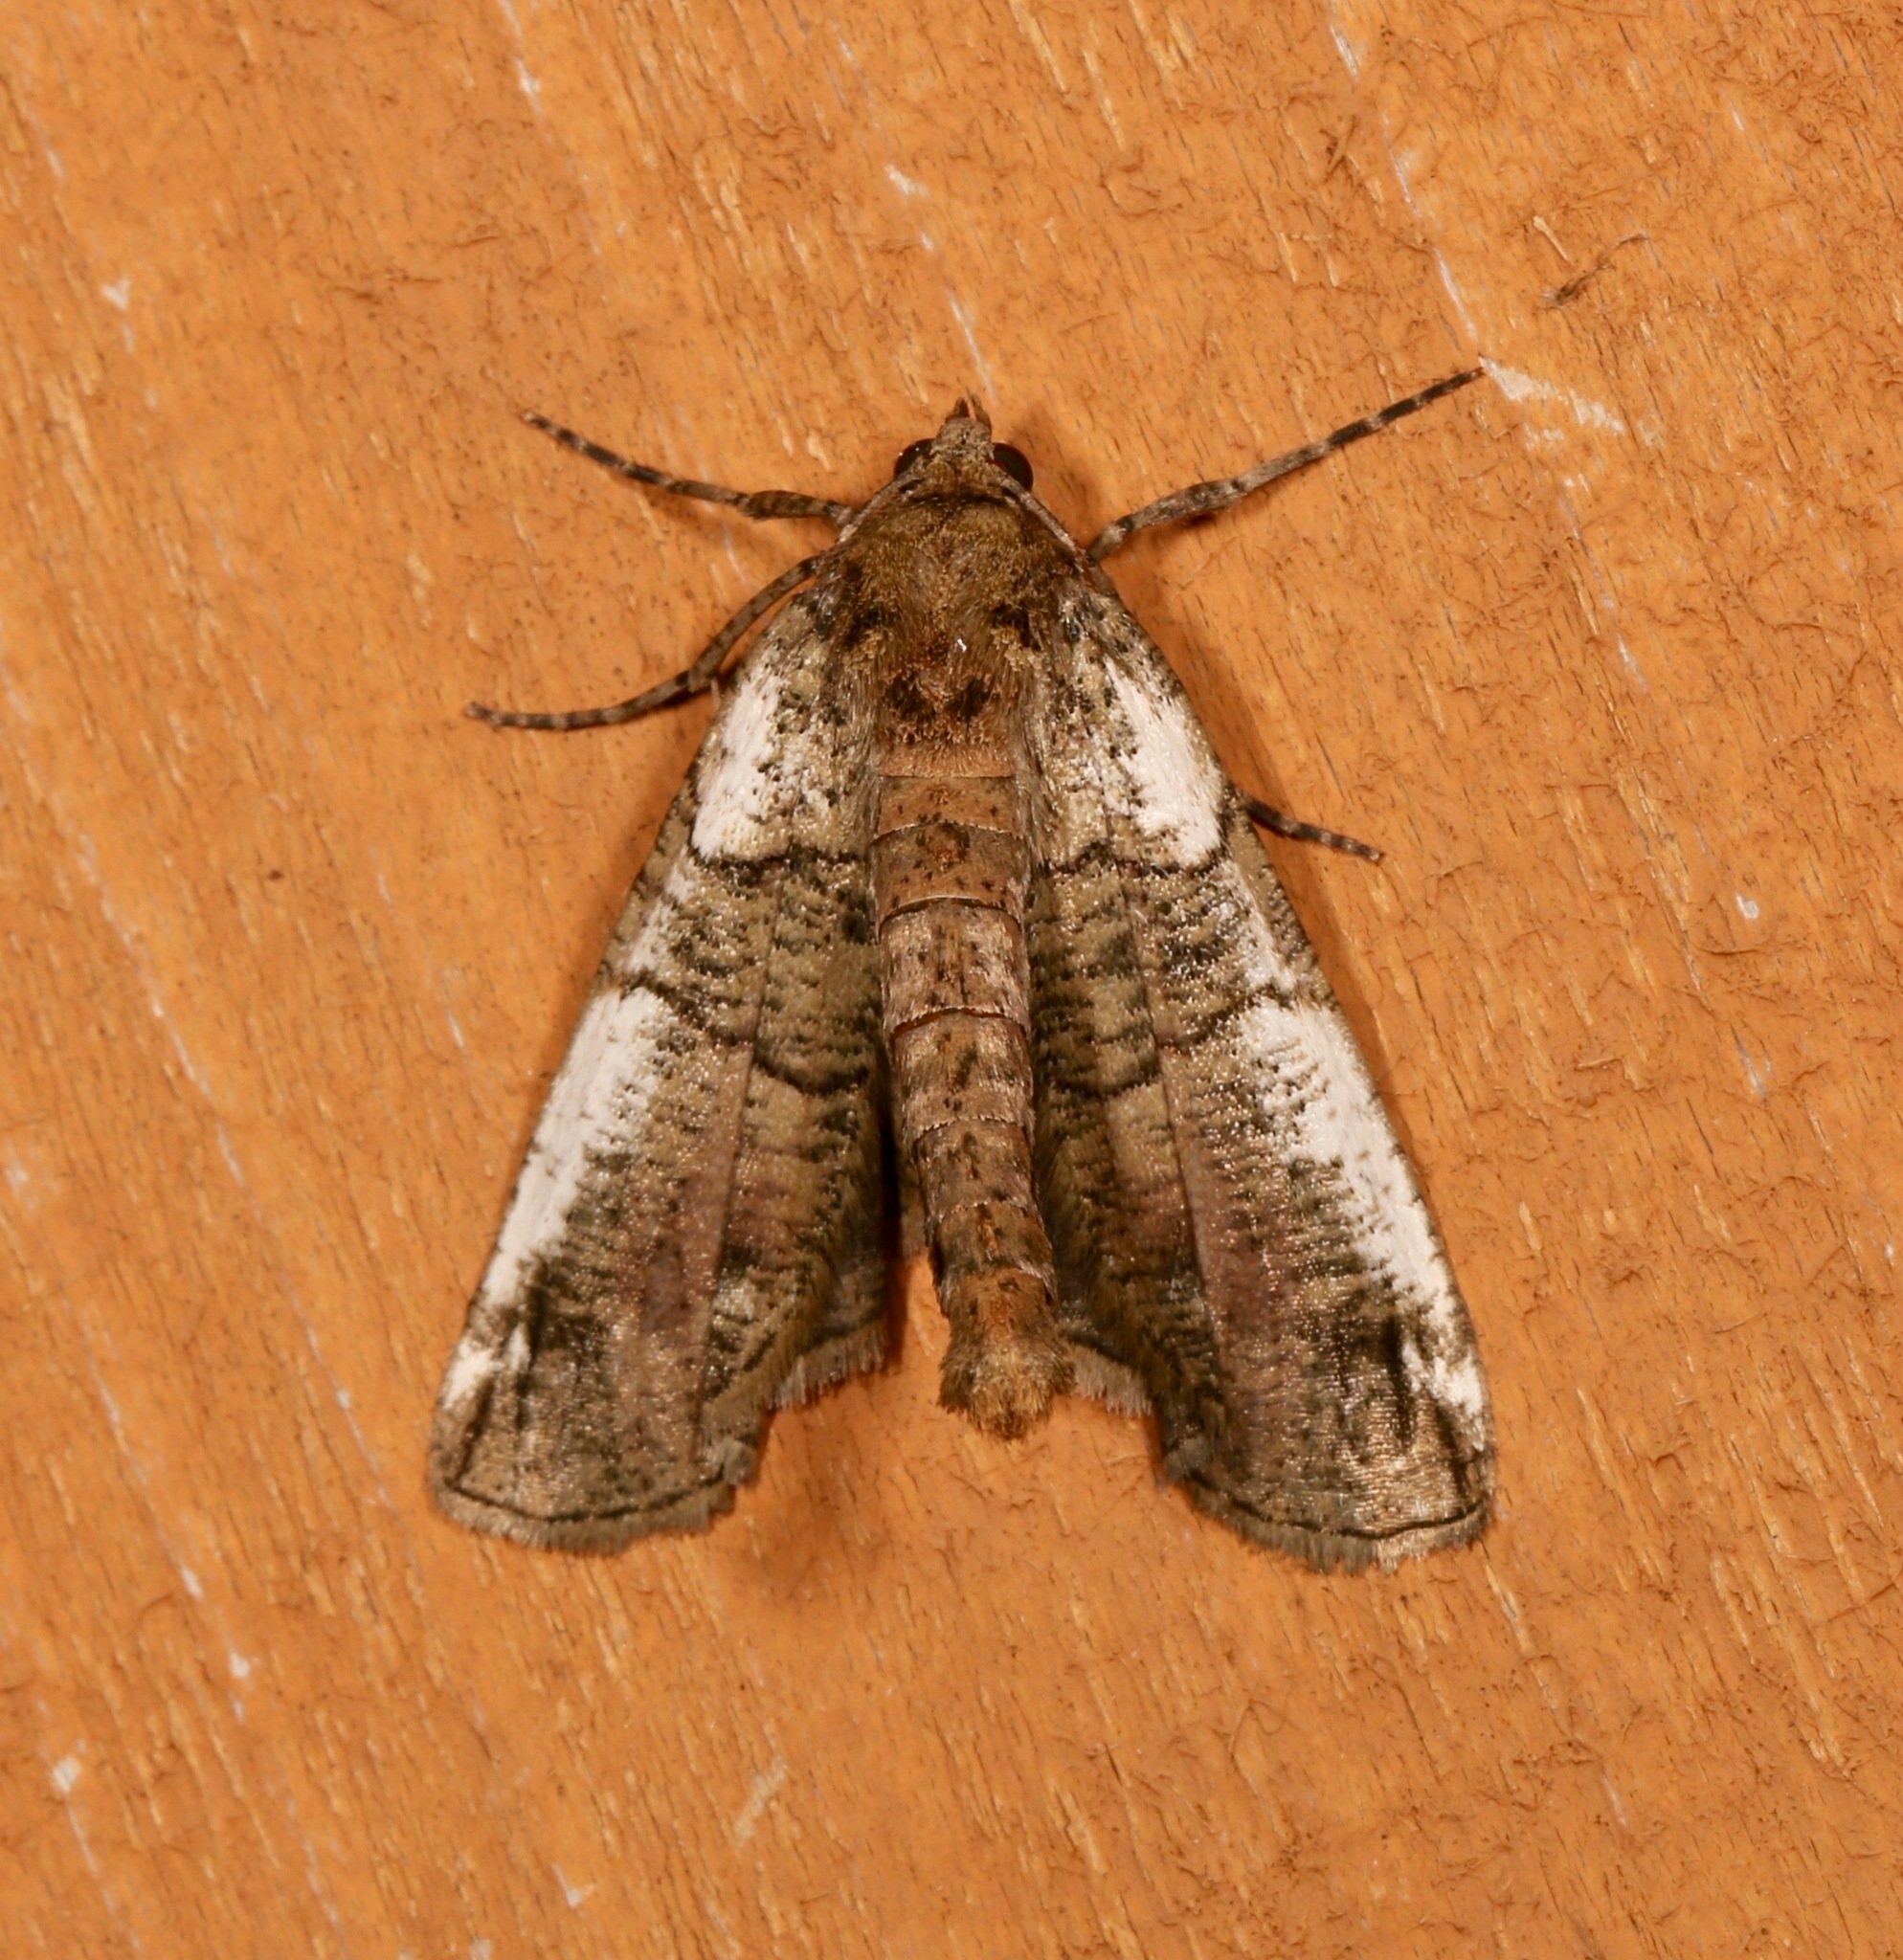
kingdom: Animalia
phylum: Arthropoda
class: Insecta
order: Lepidoptera
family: Geometridae
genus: Ceratonyx
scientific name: Ceratonyx satanaria
